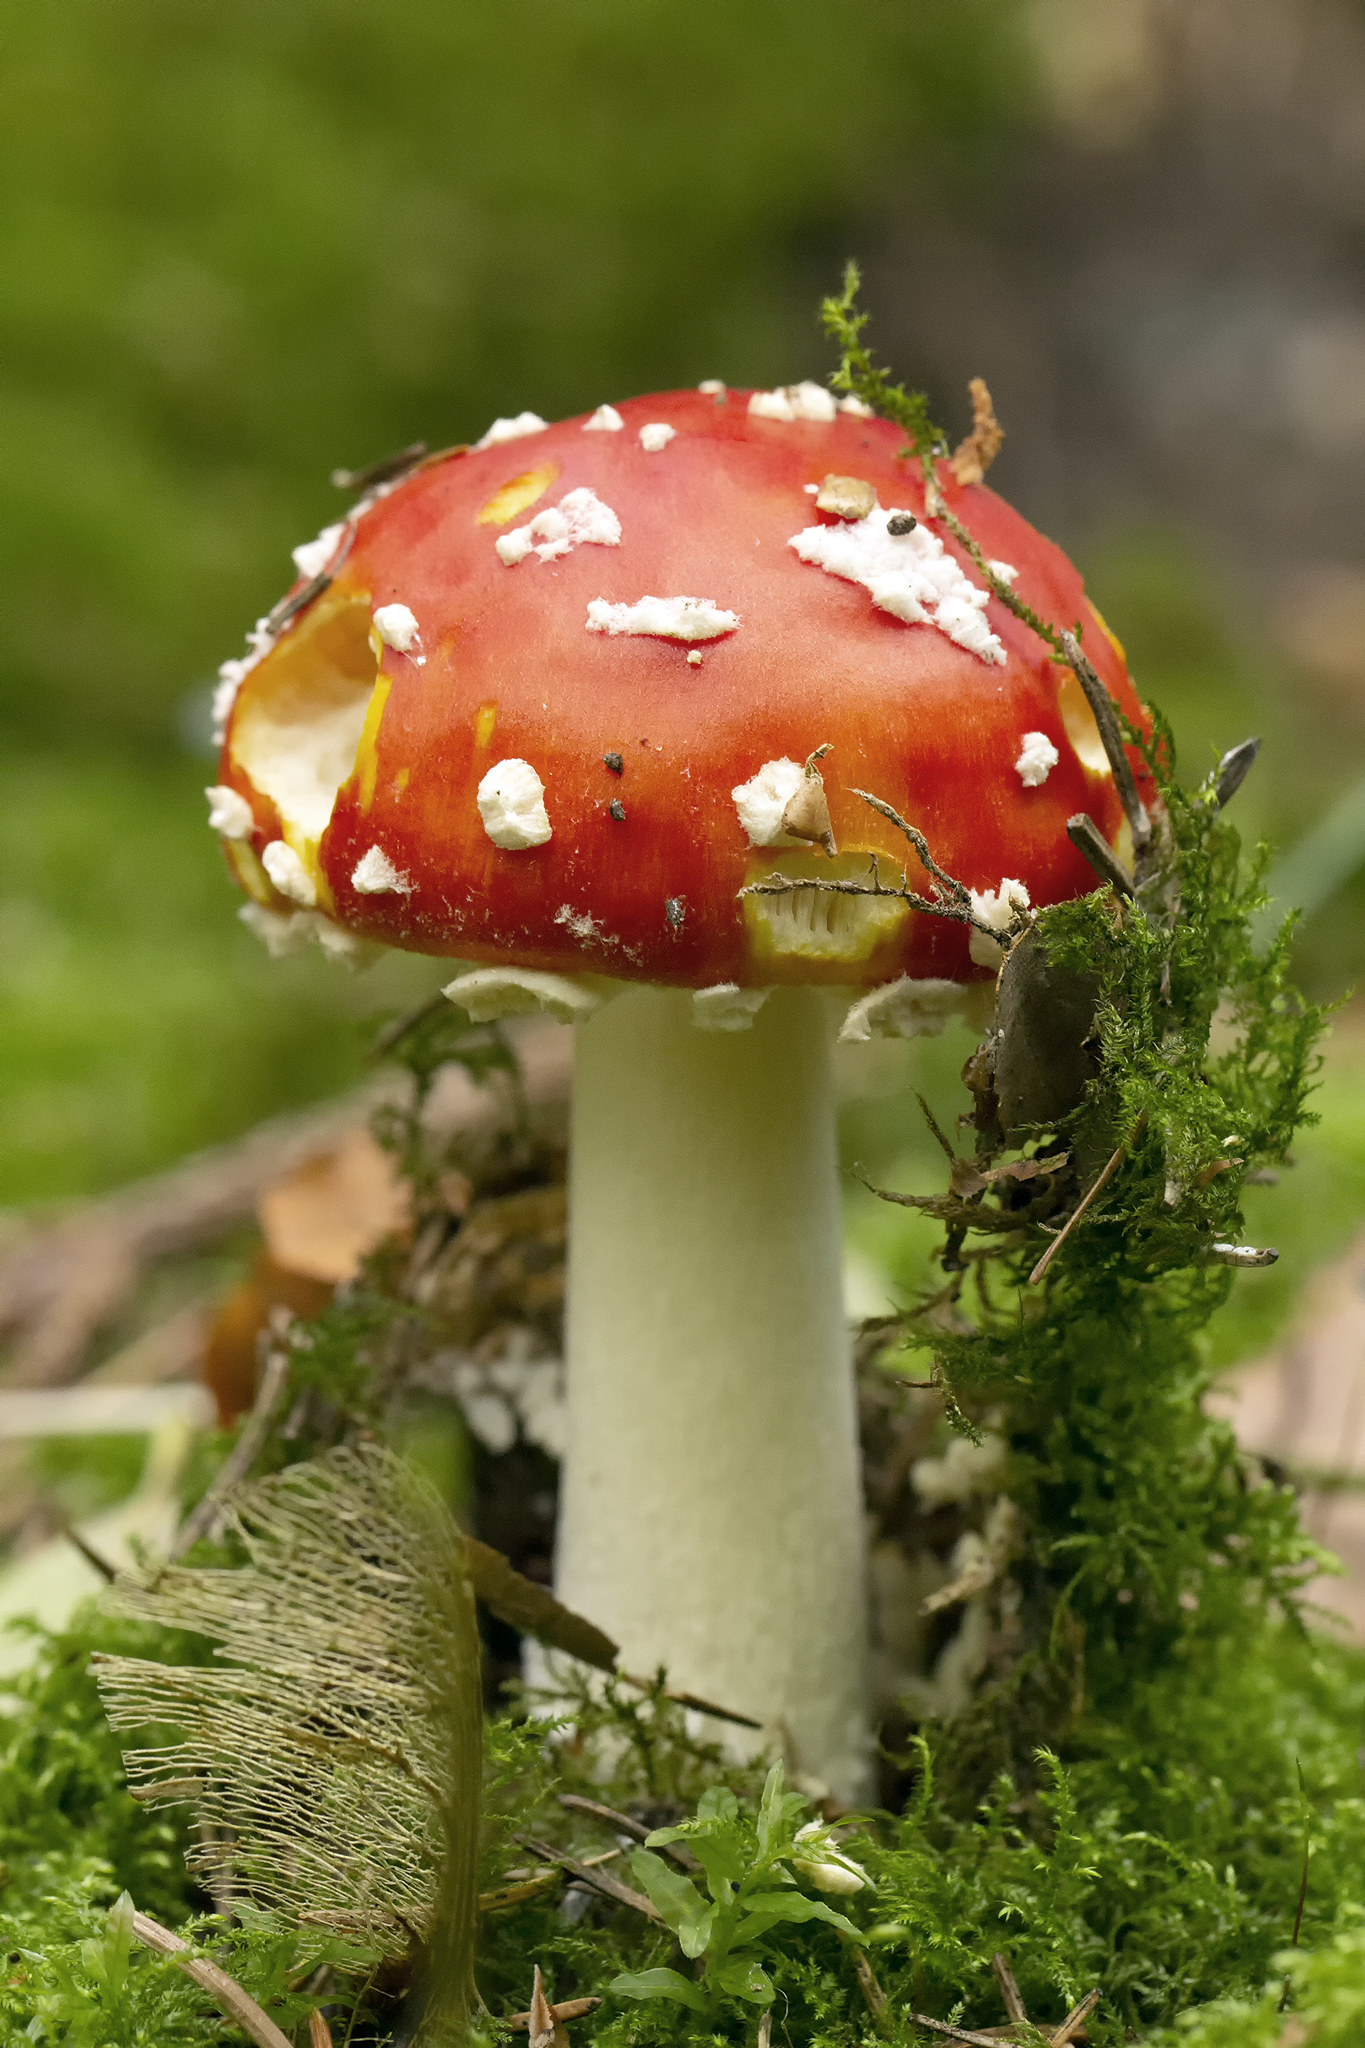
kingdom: Fungi
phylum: Basidiomycota
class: Agaricomycetes
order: Agaricales
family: Amanitaceae
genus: Amanita
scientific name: Amanita muscaria
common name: Fly agaric
